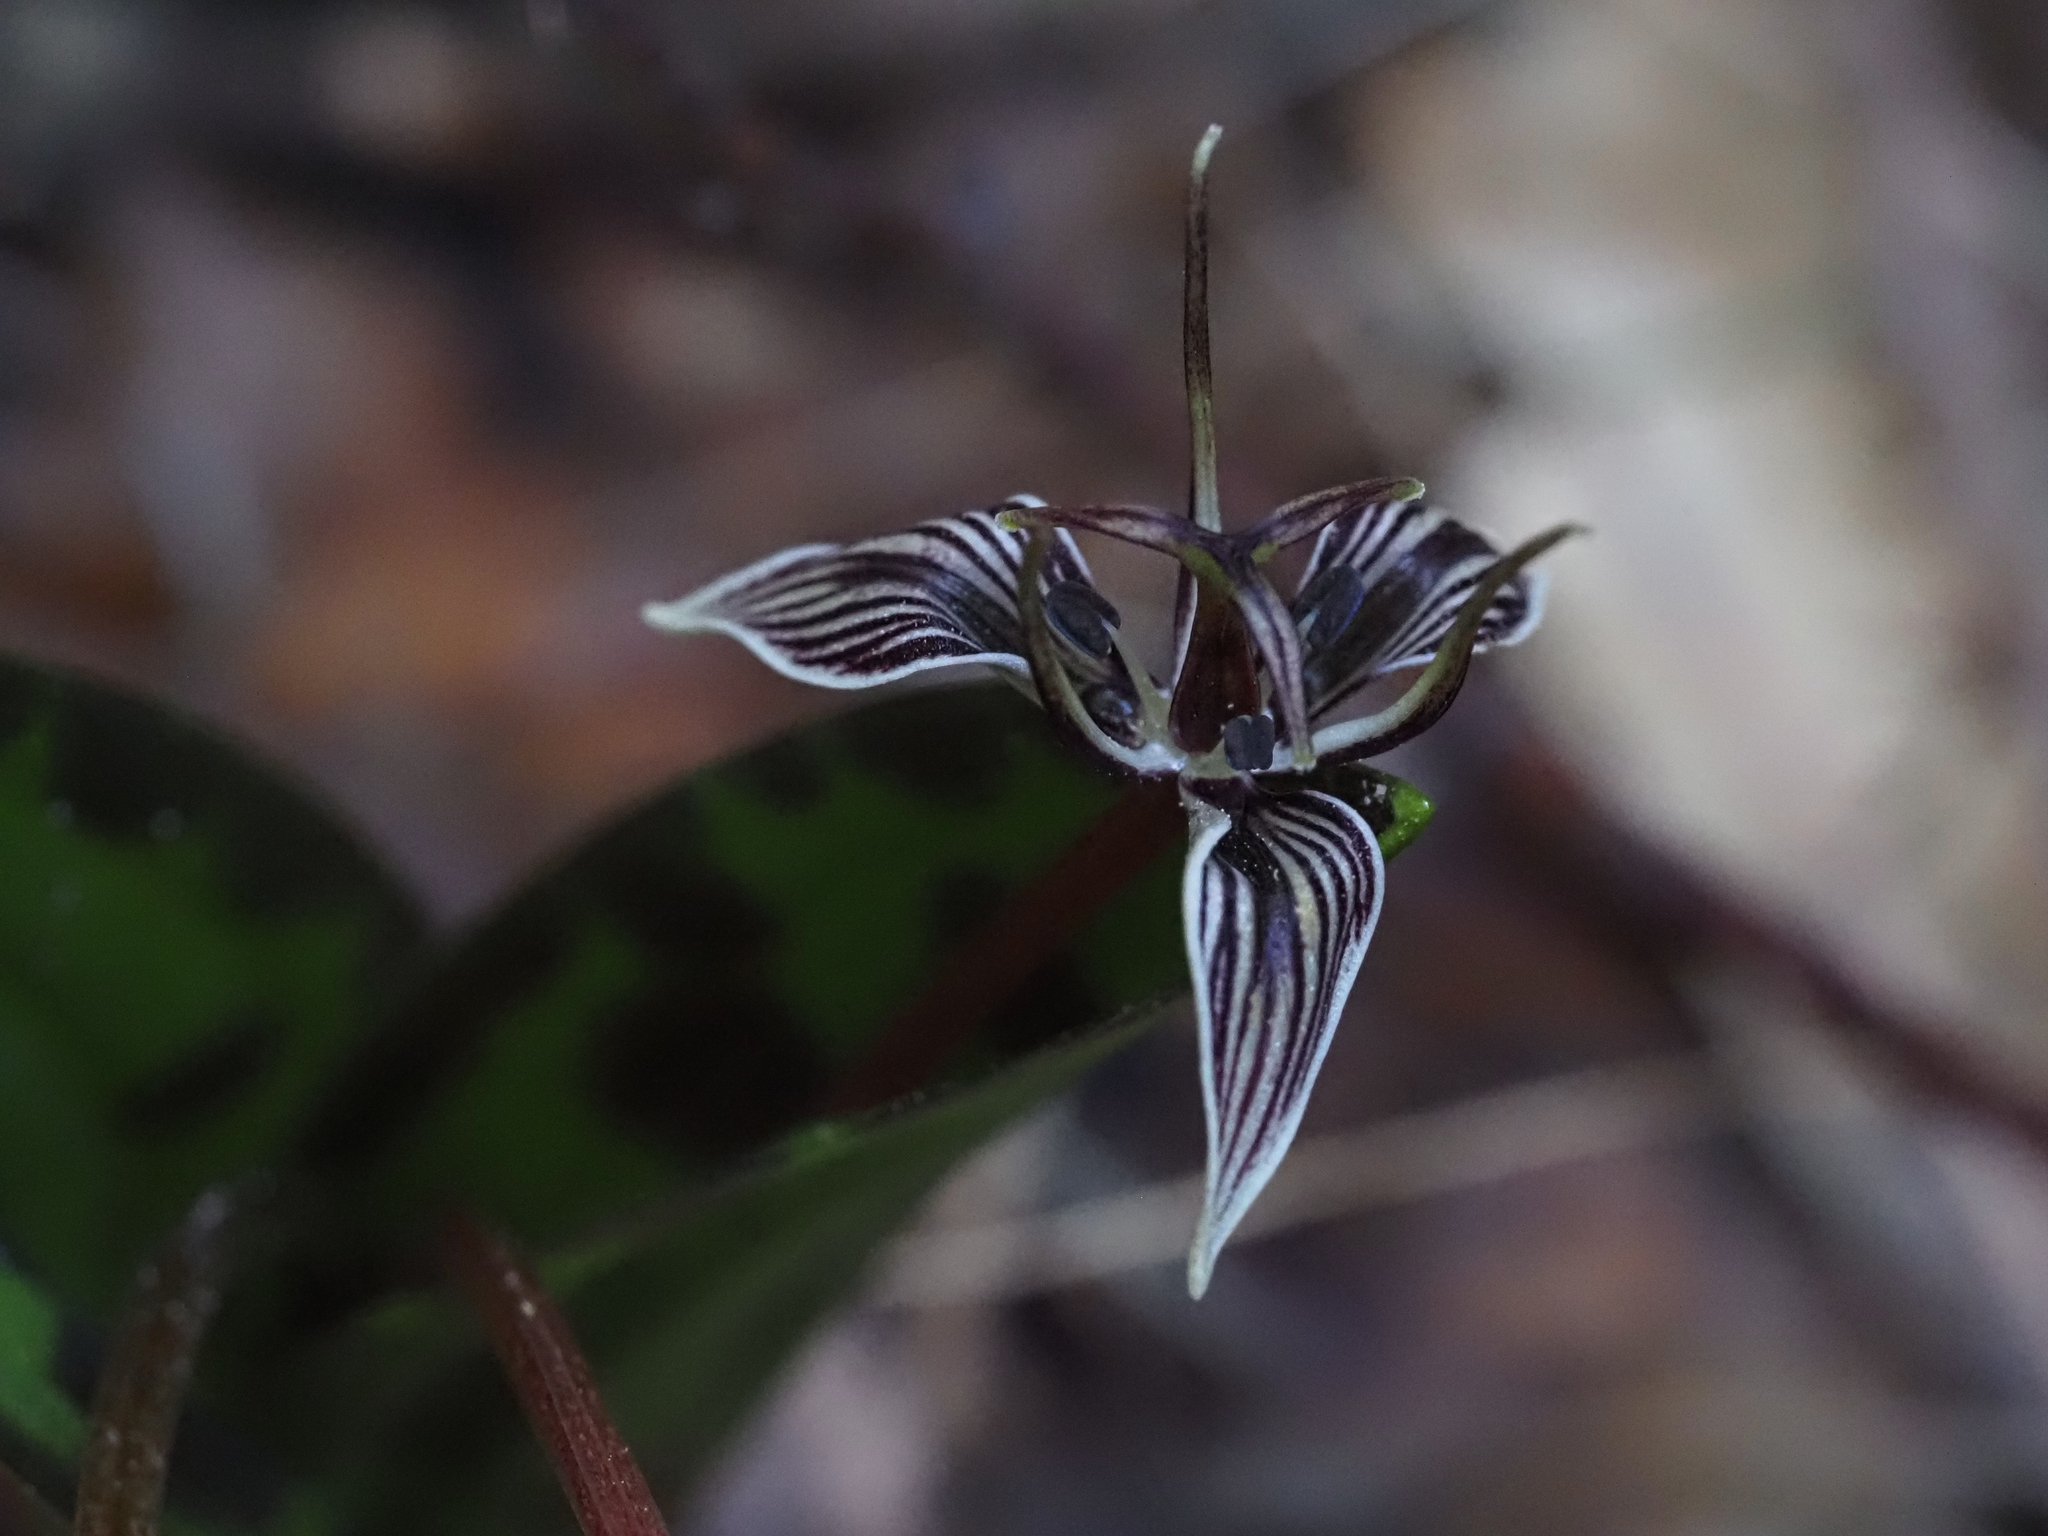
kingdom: Plantae
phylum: Tracheophyta
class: Liliopsida
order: Liliales
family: Liliaceae
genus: Scoliopus
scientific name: Scoliopus bigelovii
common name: Foetid adder's-tongue
